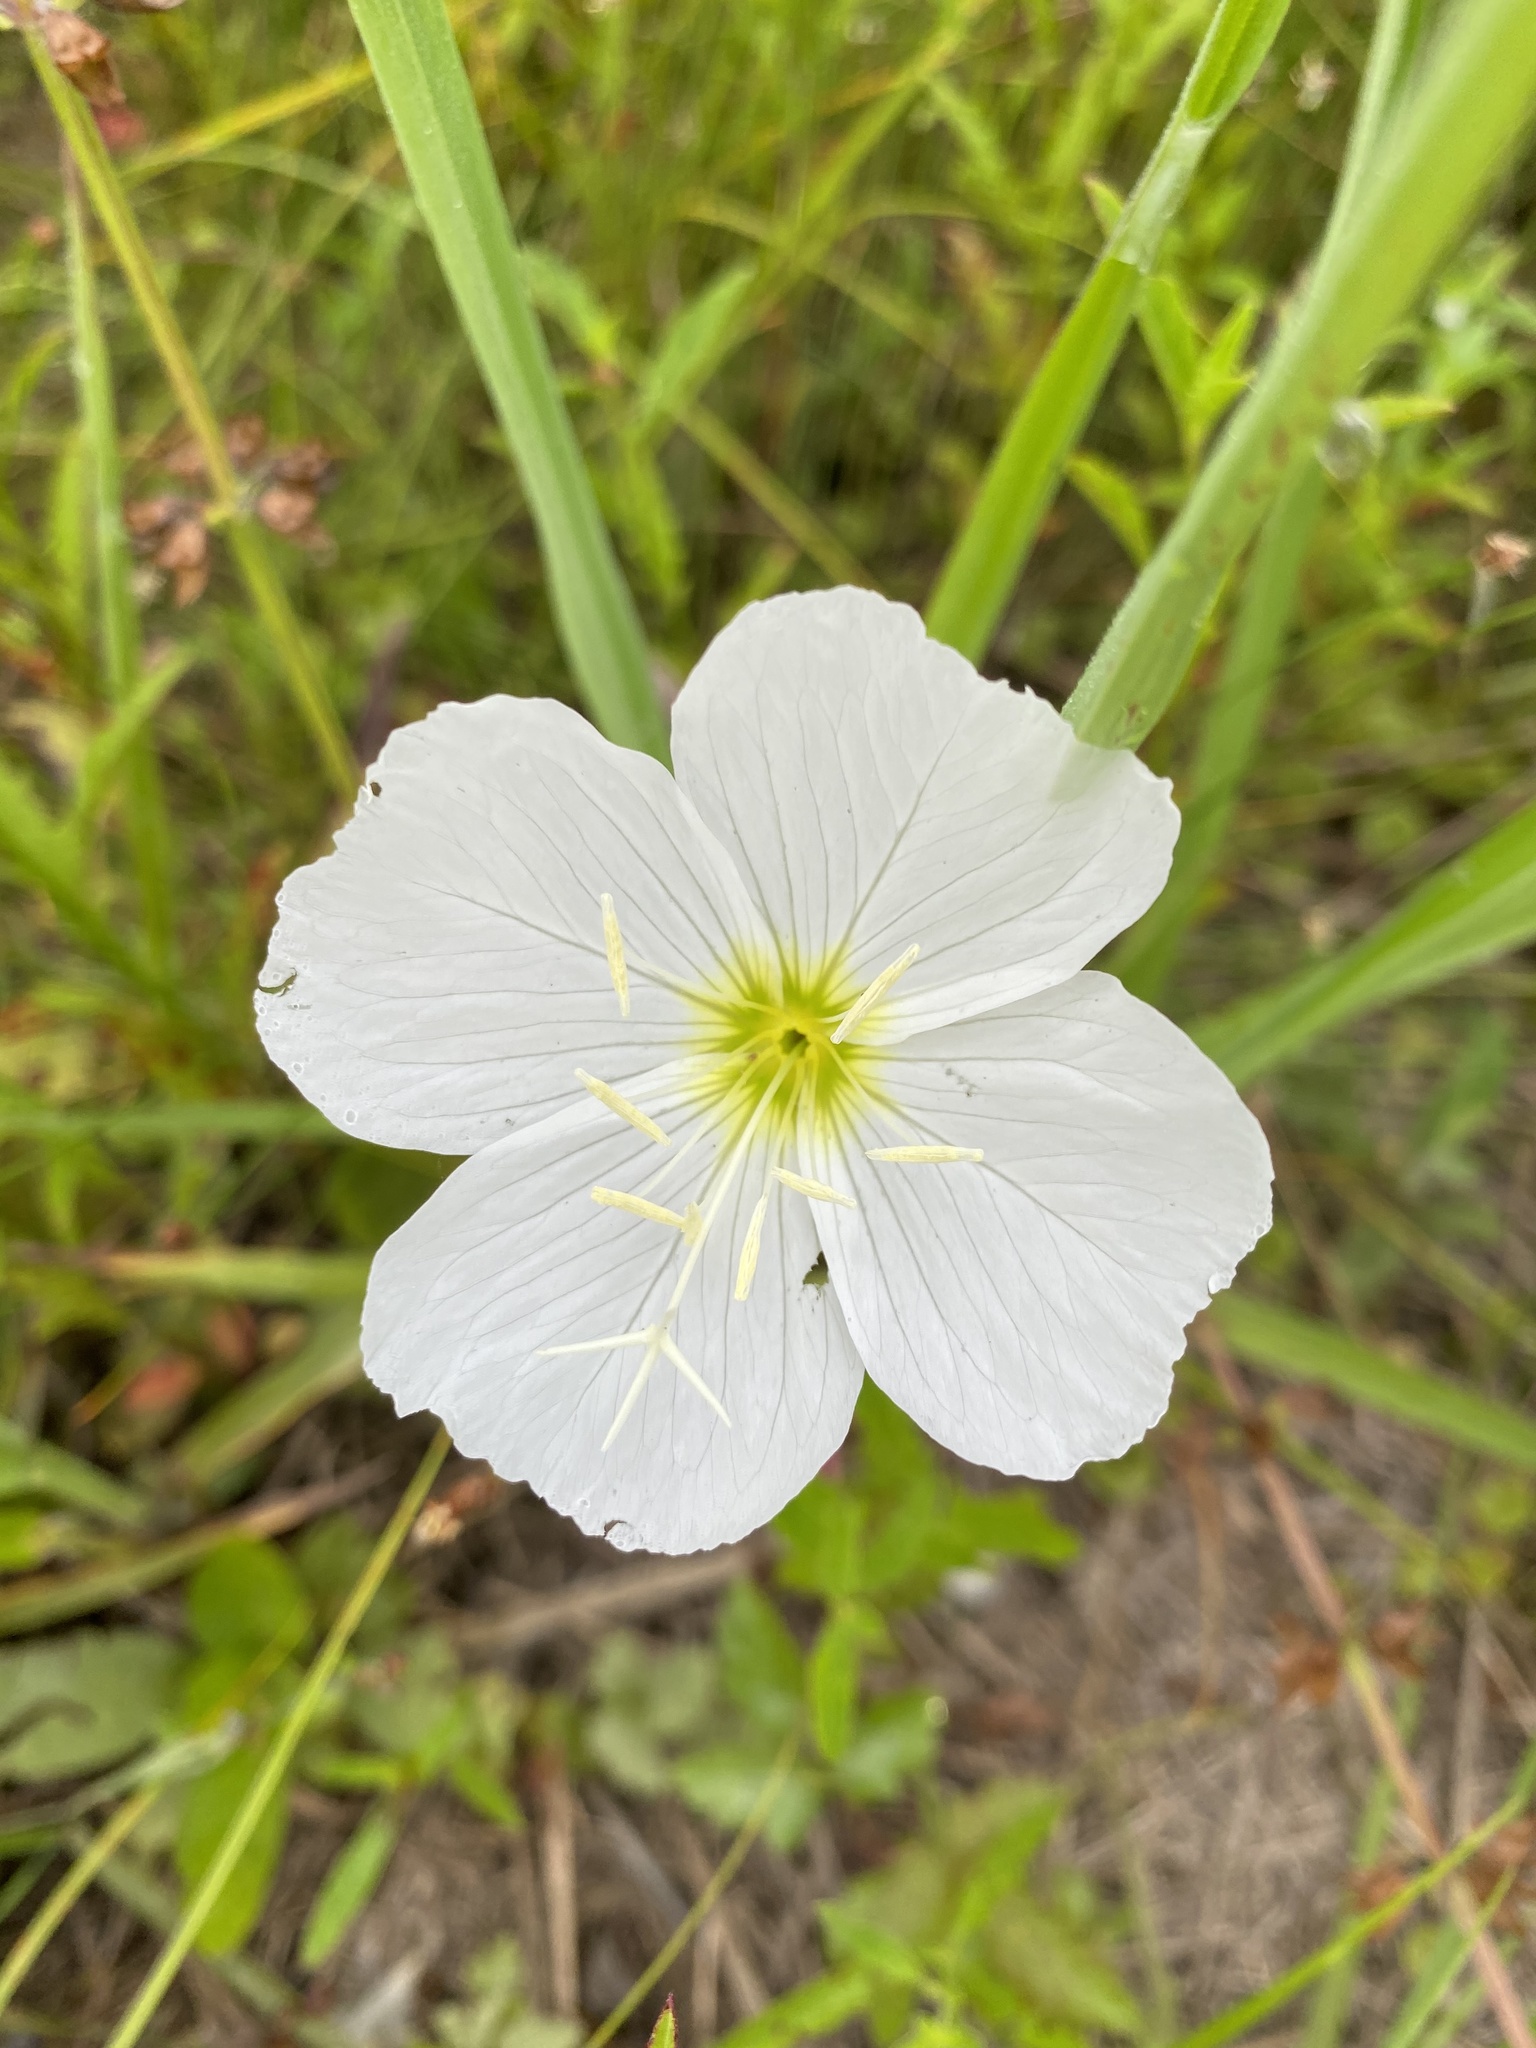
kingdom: Plantae
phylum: Tracheophyta
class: Magnoliopsida
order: Myrtales
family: Onagraceae
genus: Oenothera
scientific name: Oenothera speciosa
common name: White evening-primrose
